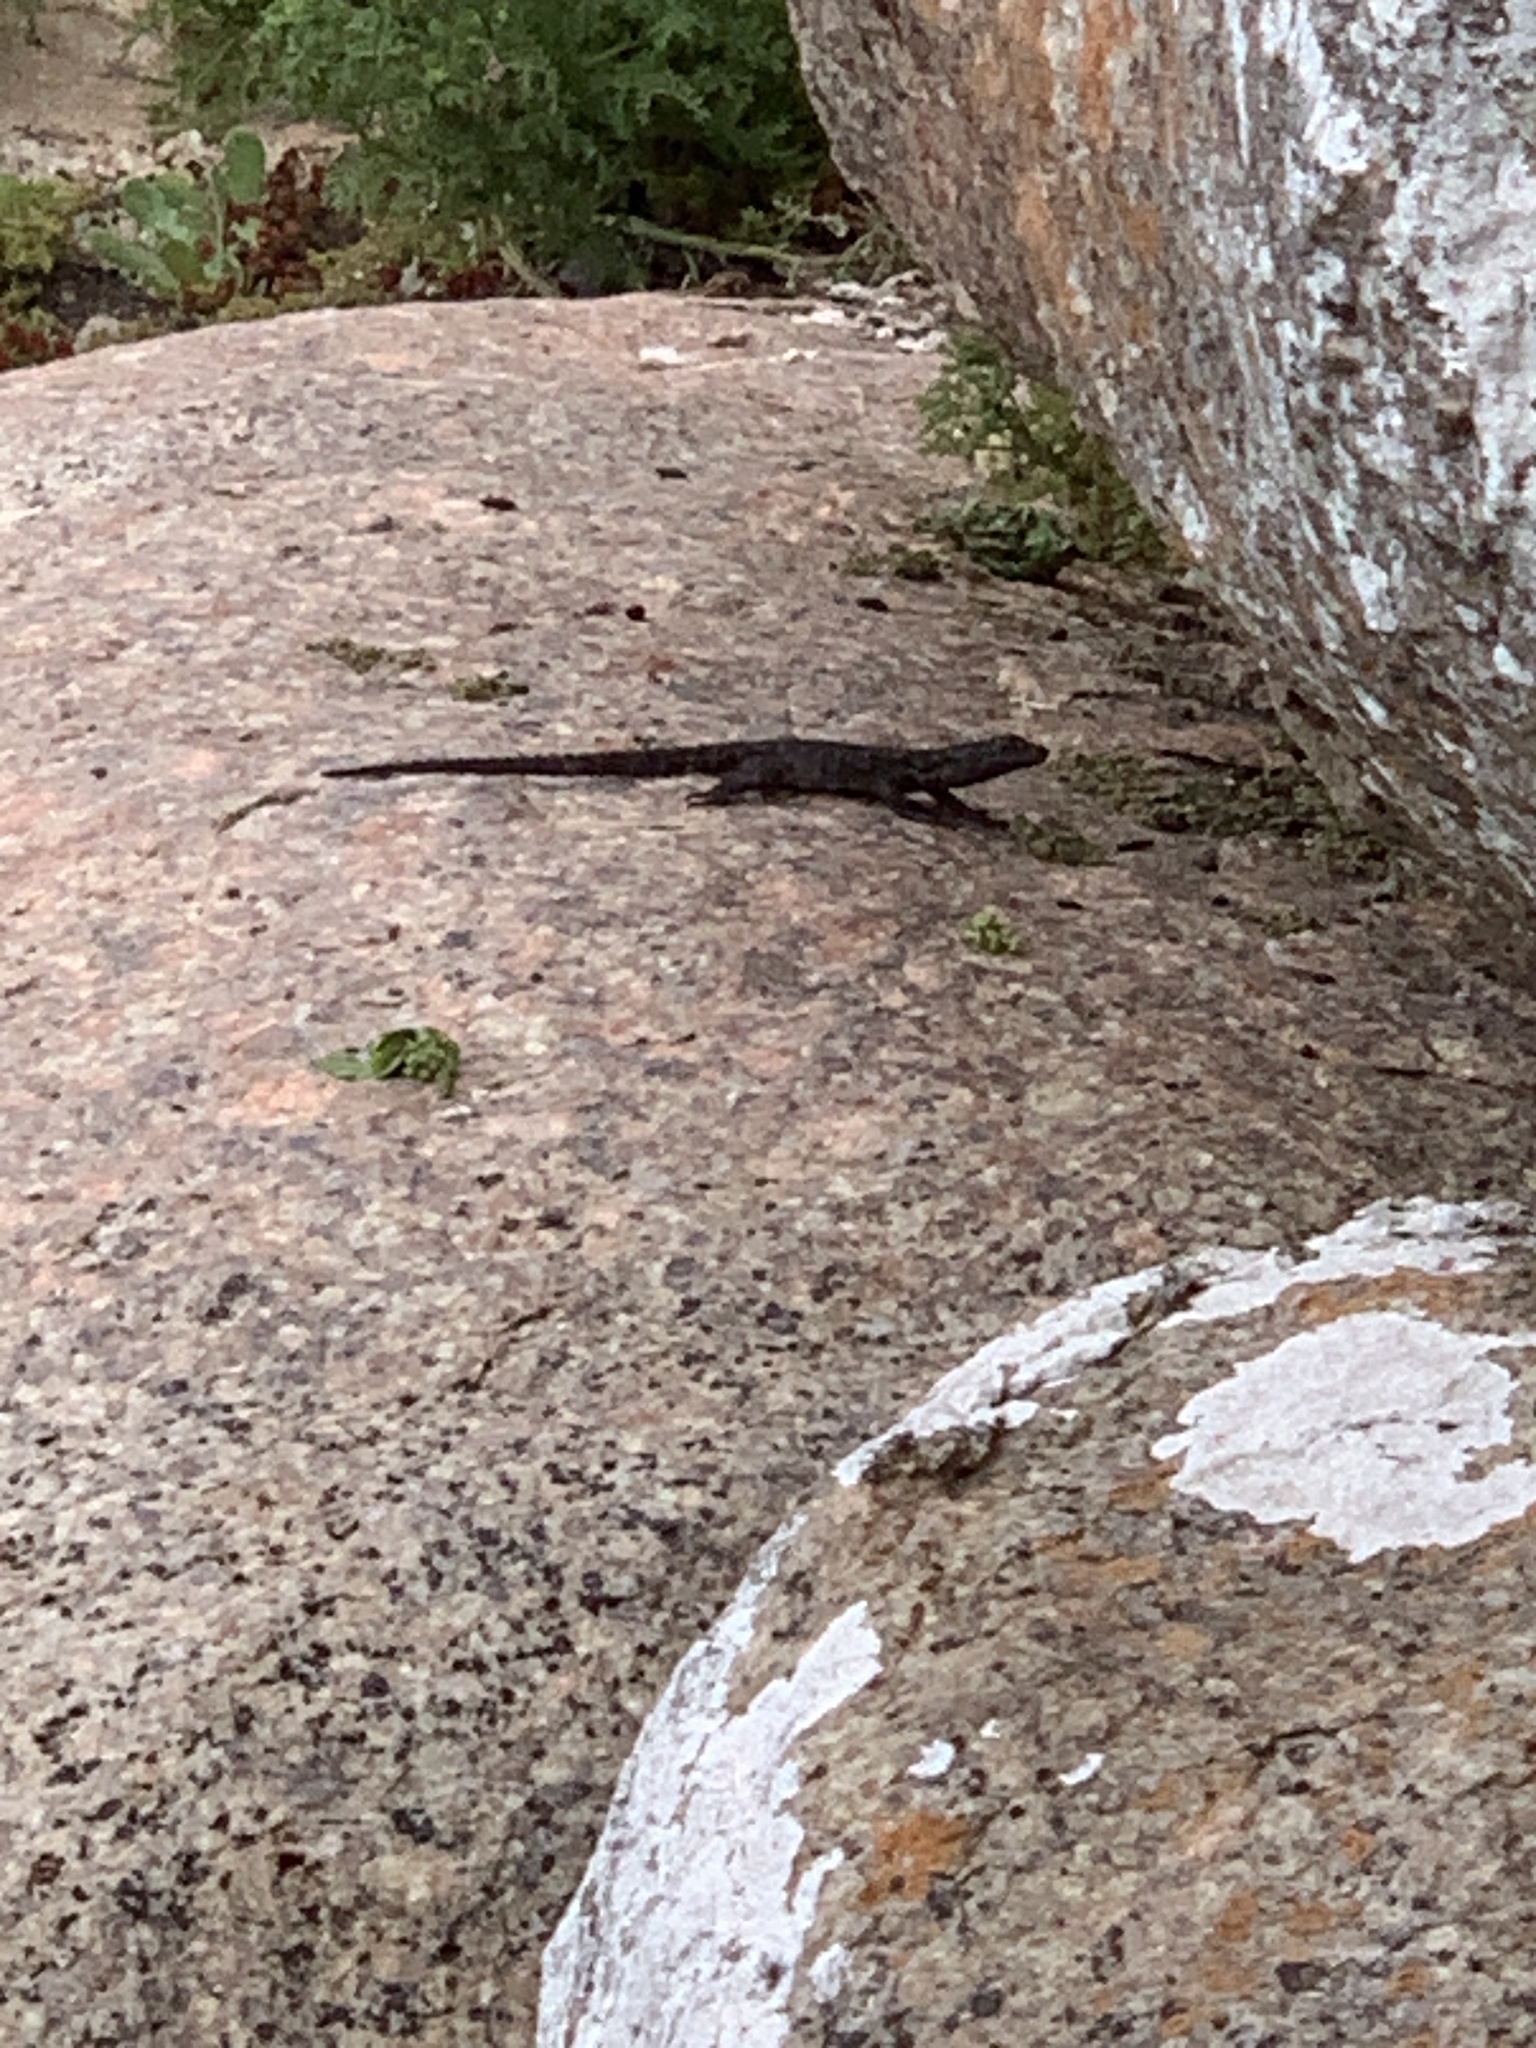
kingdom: Animalia
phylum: Chordata
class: Squamata
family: Cordylidae
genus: Karusasaurus
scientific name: Karusasaurus polyzonus
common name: Karoo girdled lizard
